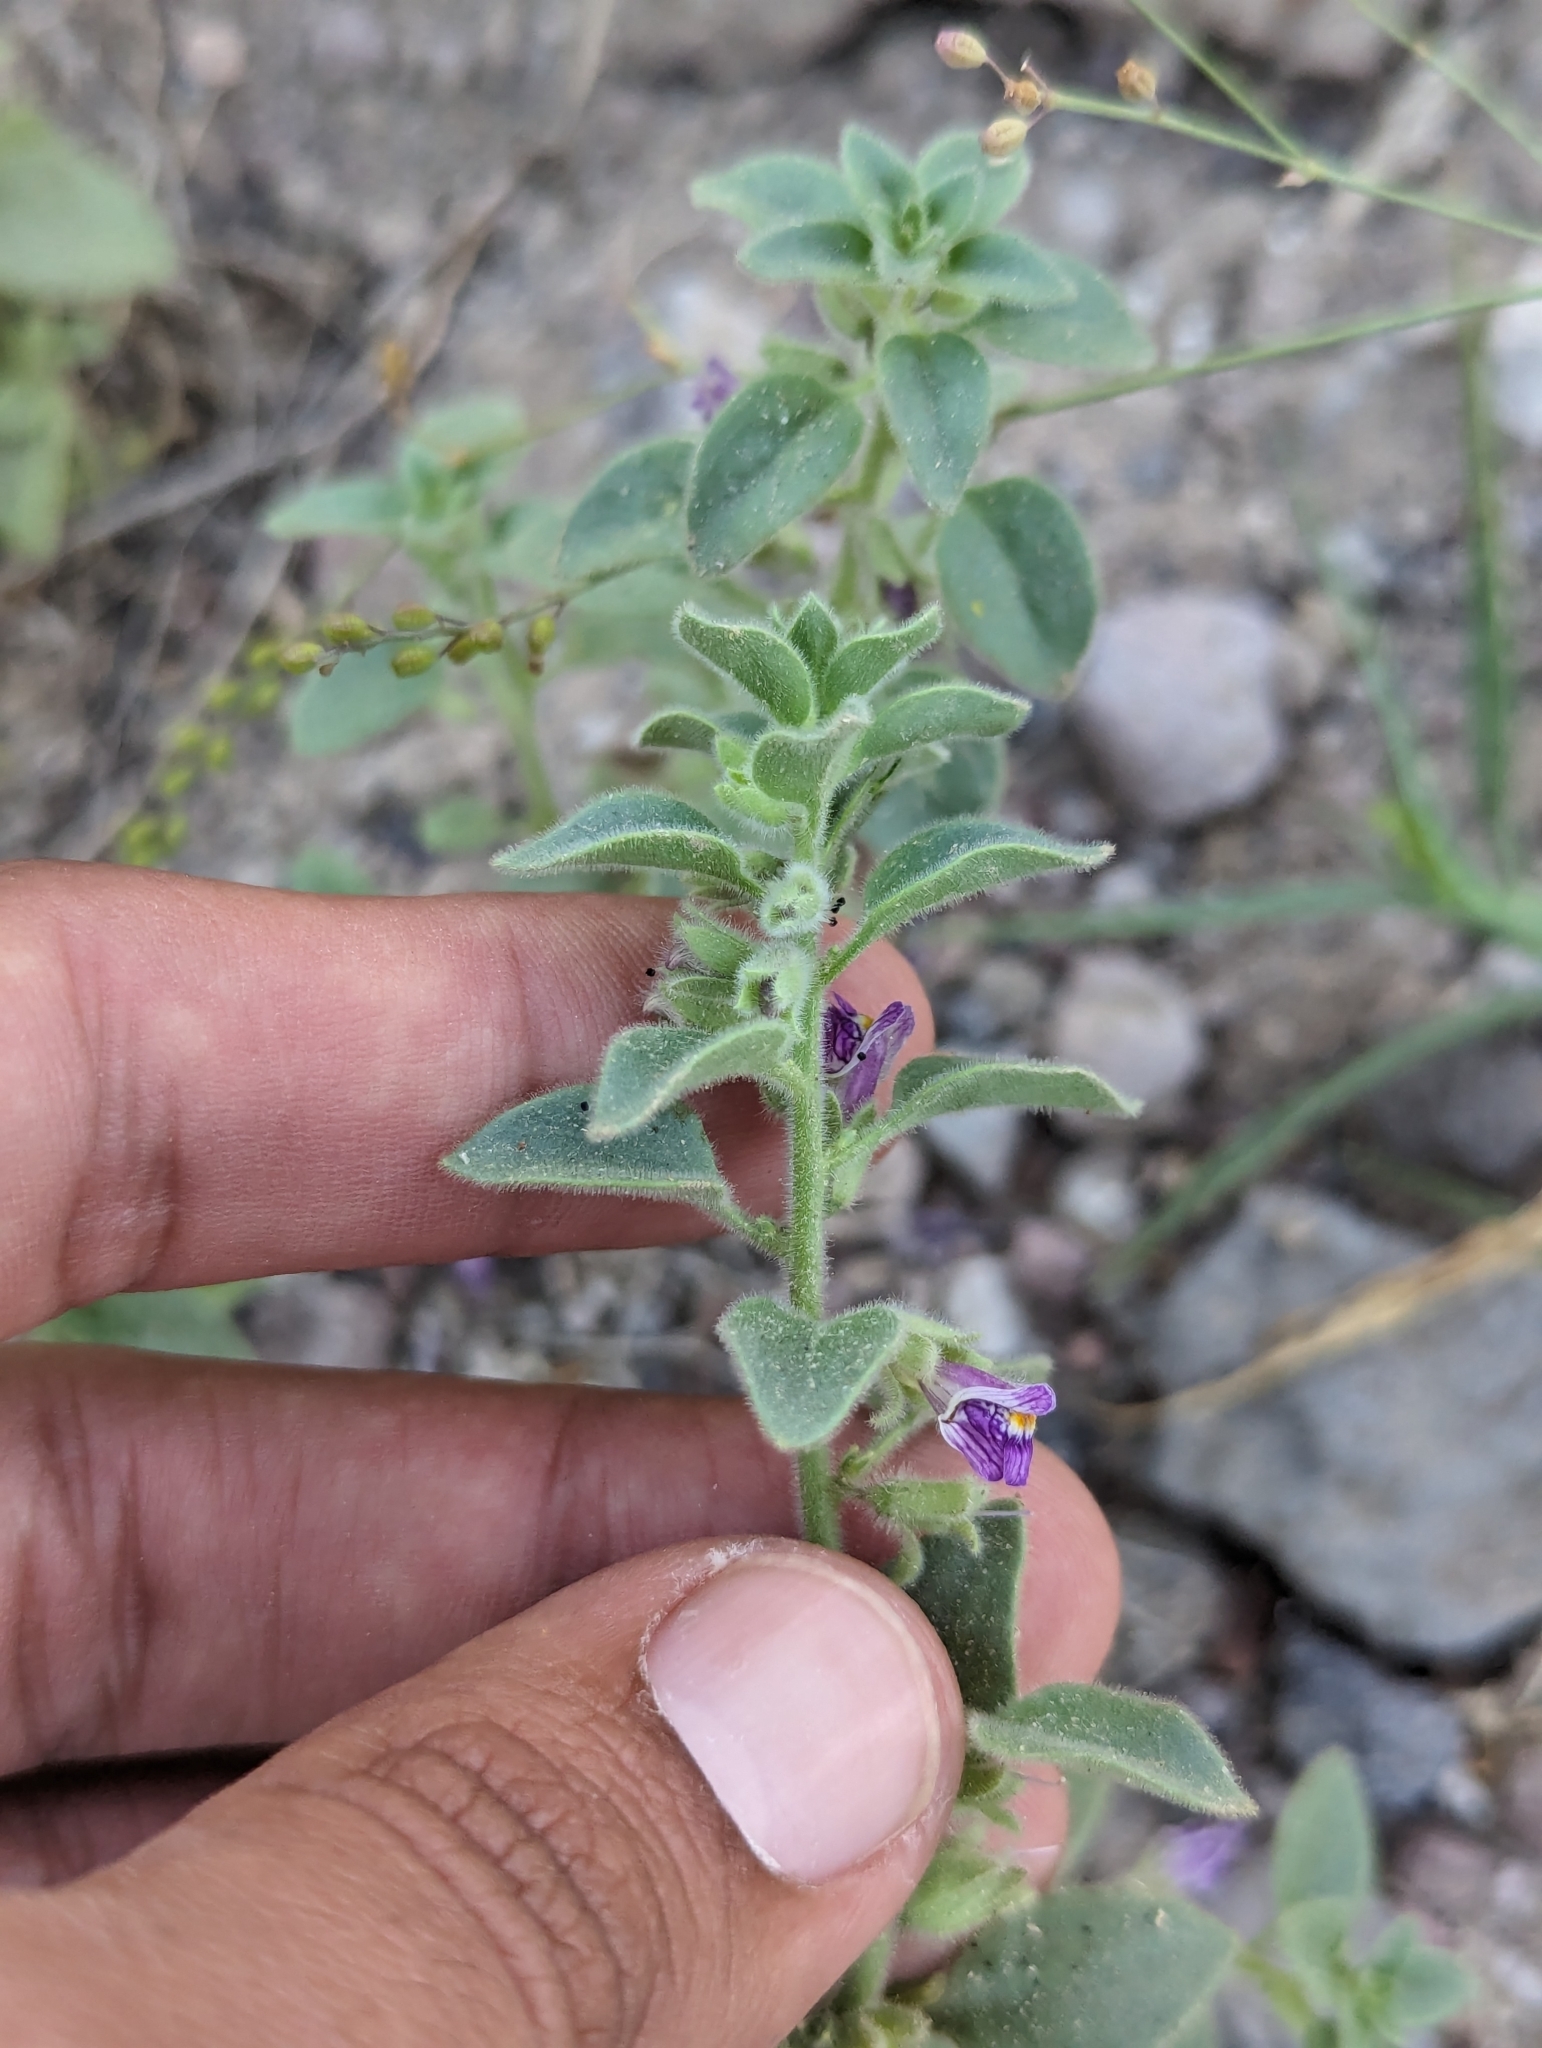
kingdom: Plantae
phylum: Tracheophyta
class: Magnoliopsida
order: Lamiales
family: Plantaginaceae
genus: Pseudorontium
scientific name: Pseudorontium cyathiferum
